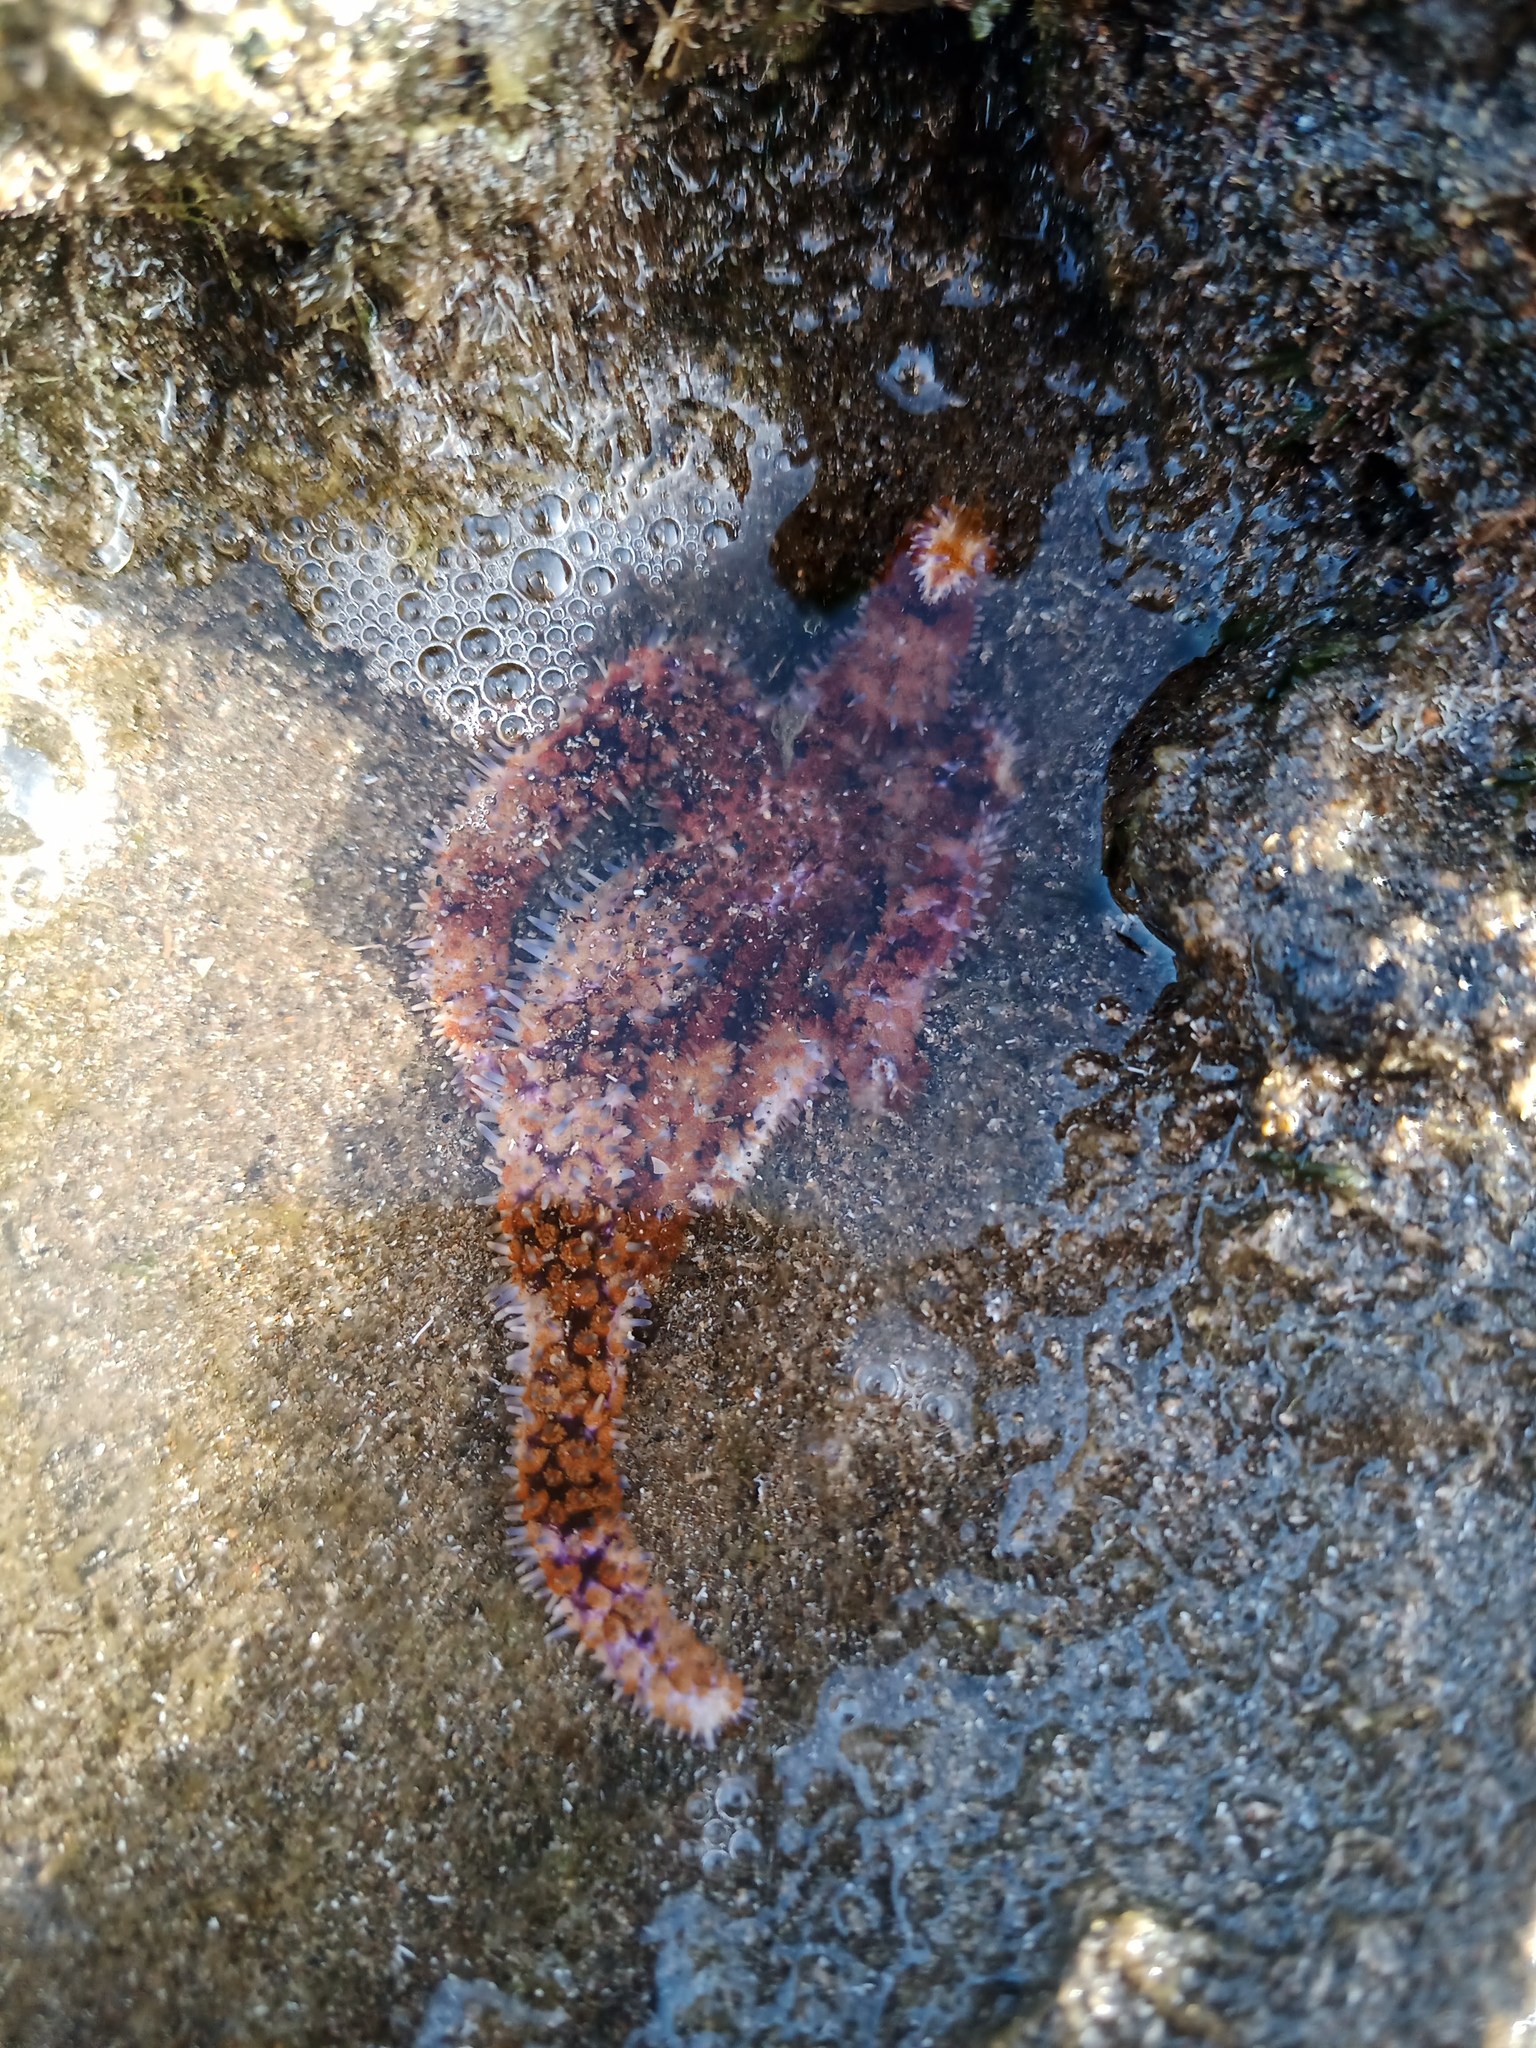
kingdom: Animalia
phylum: Echinodermata
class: Asteroidea
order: Forcipulatida
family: Asteriidae
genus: Coscinasterias
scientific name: Coscinasterias tenuispina
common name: Blue spiny starfish
